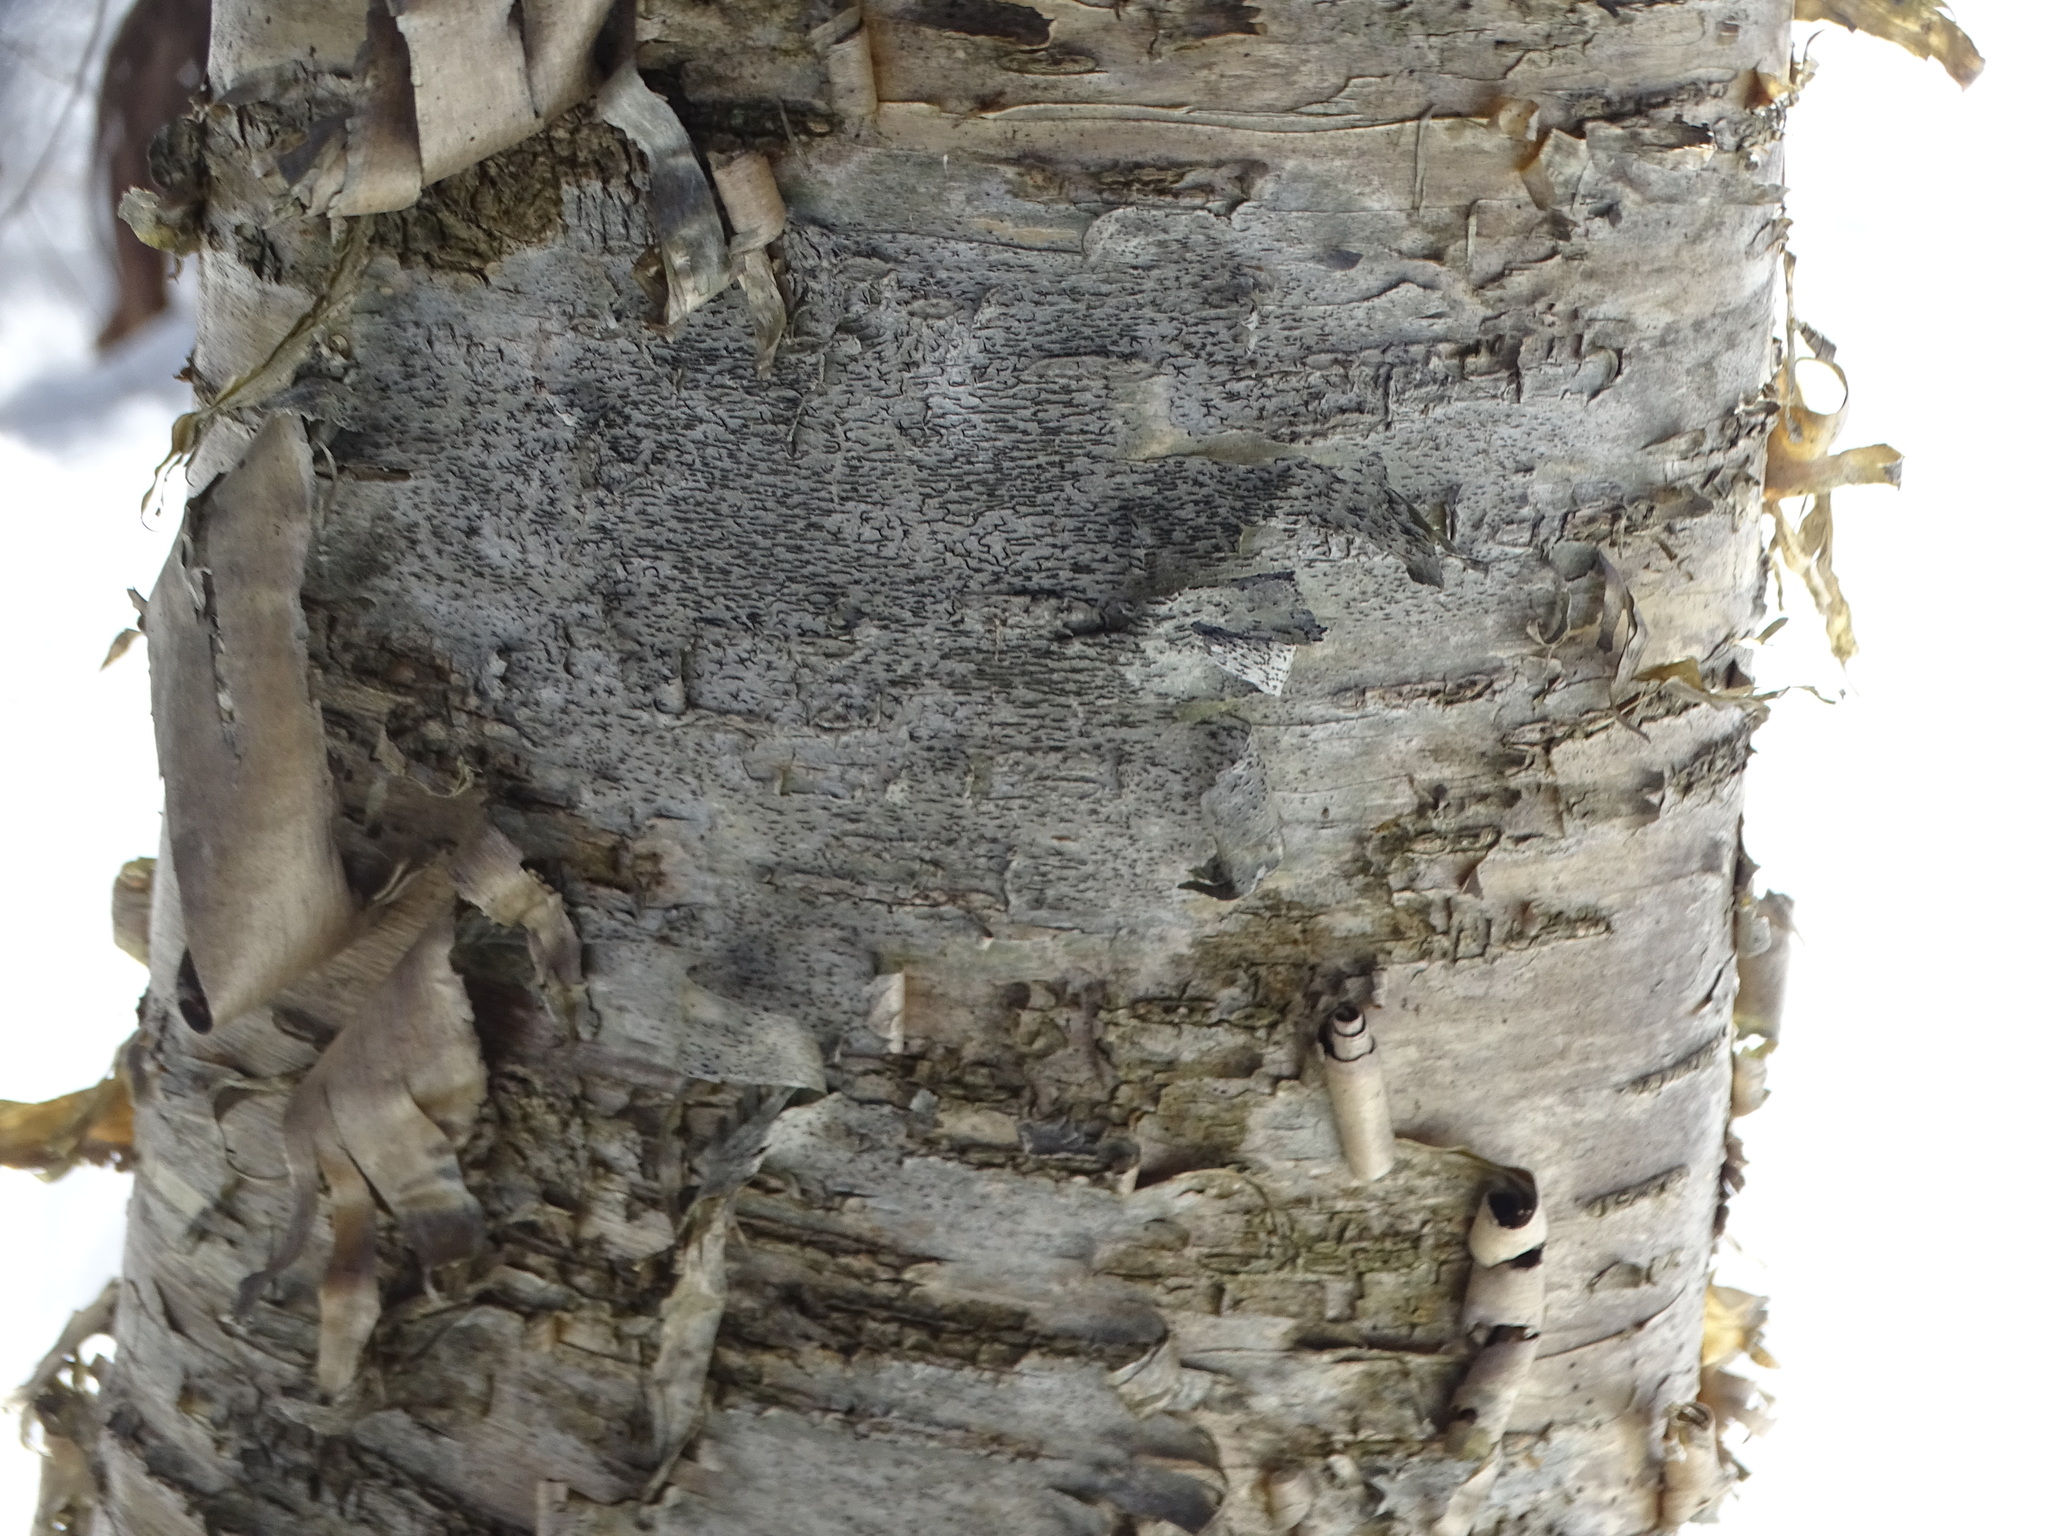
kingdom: Fungi
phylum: Ascomycota
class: Lecanoromycetes
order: Ostropales
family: Graphidaceae
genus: Graphis
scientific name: Graphis scripta
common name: Script lichen
